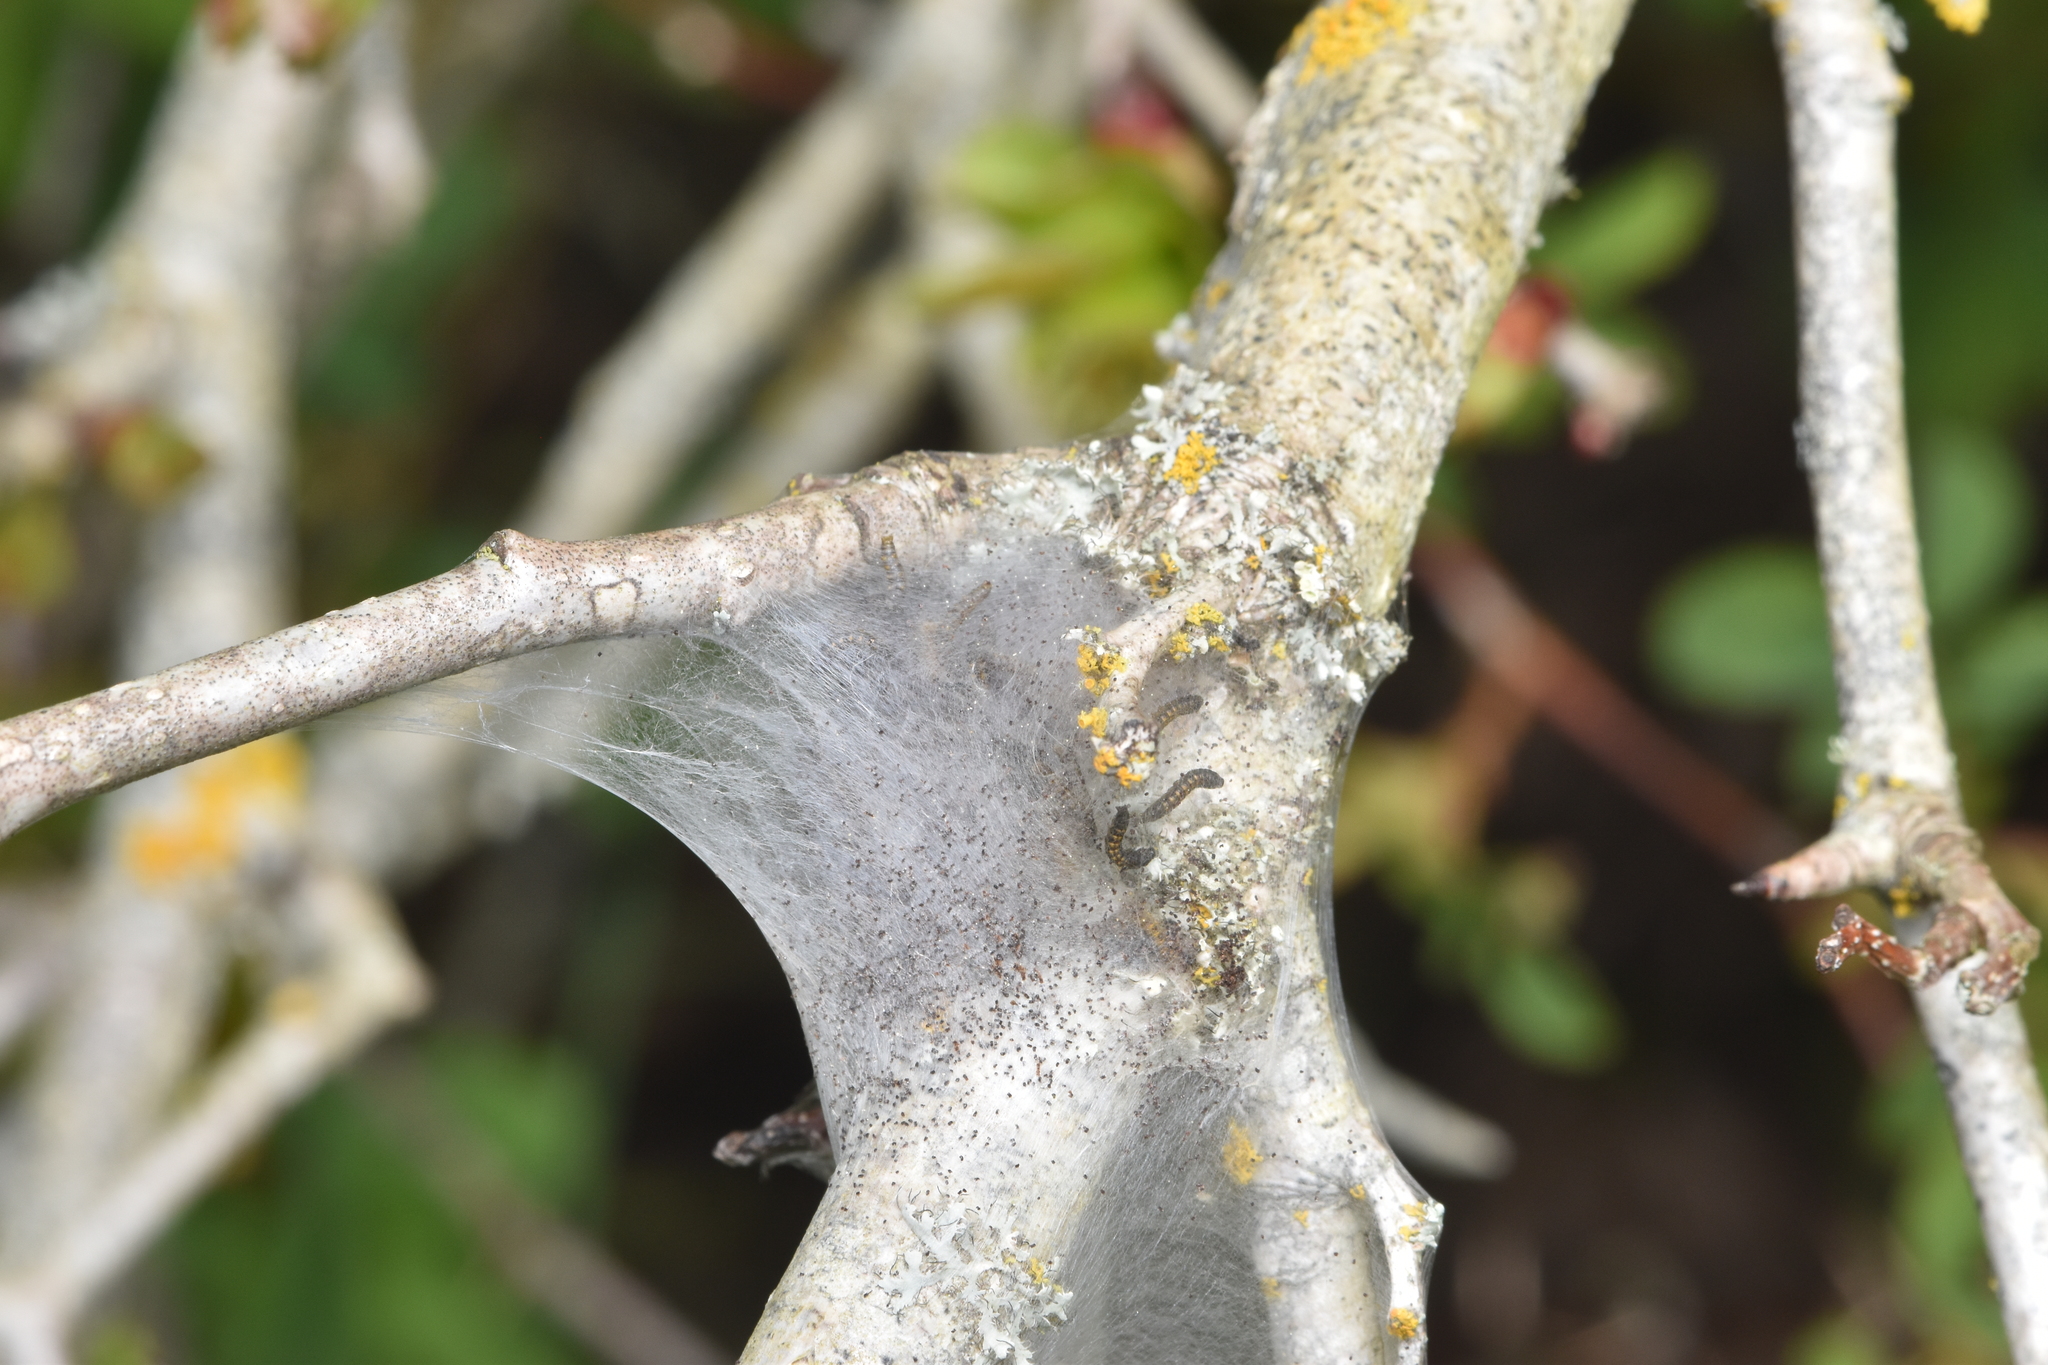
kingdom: Animalia
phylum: Arthropoda
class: Insecta
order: Lepidoptera
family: Lasiocampidae
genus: Malacosoma
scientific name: Malacosoma californica
